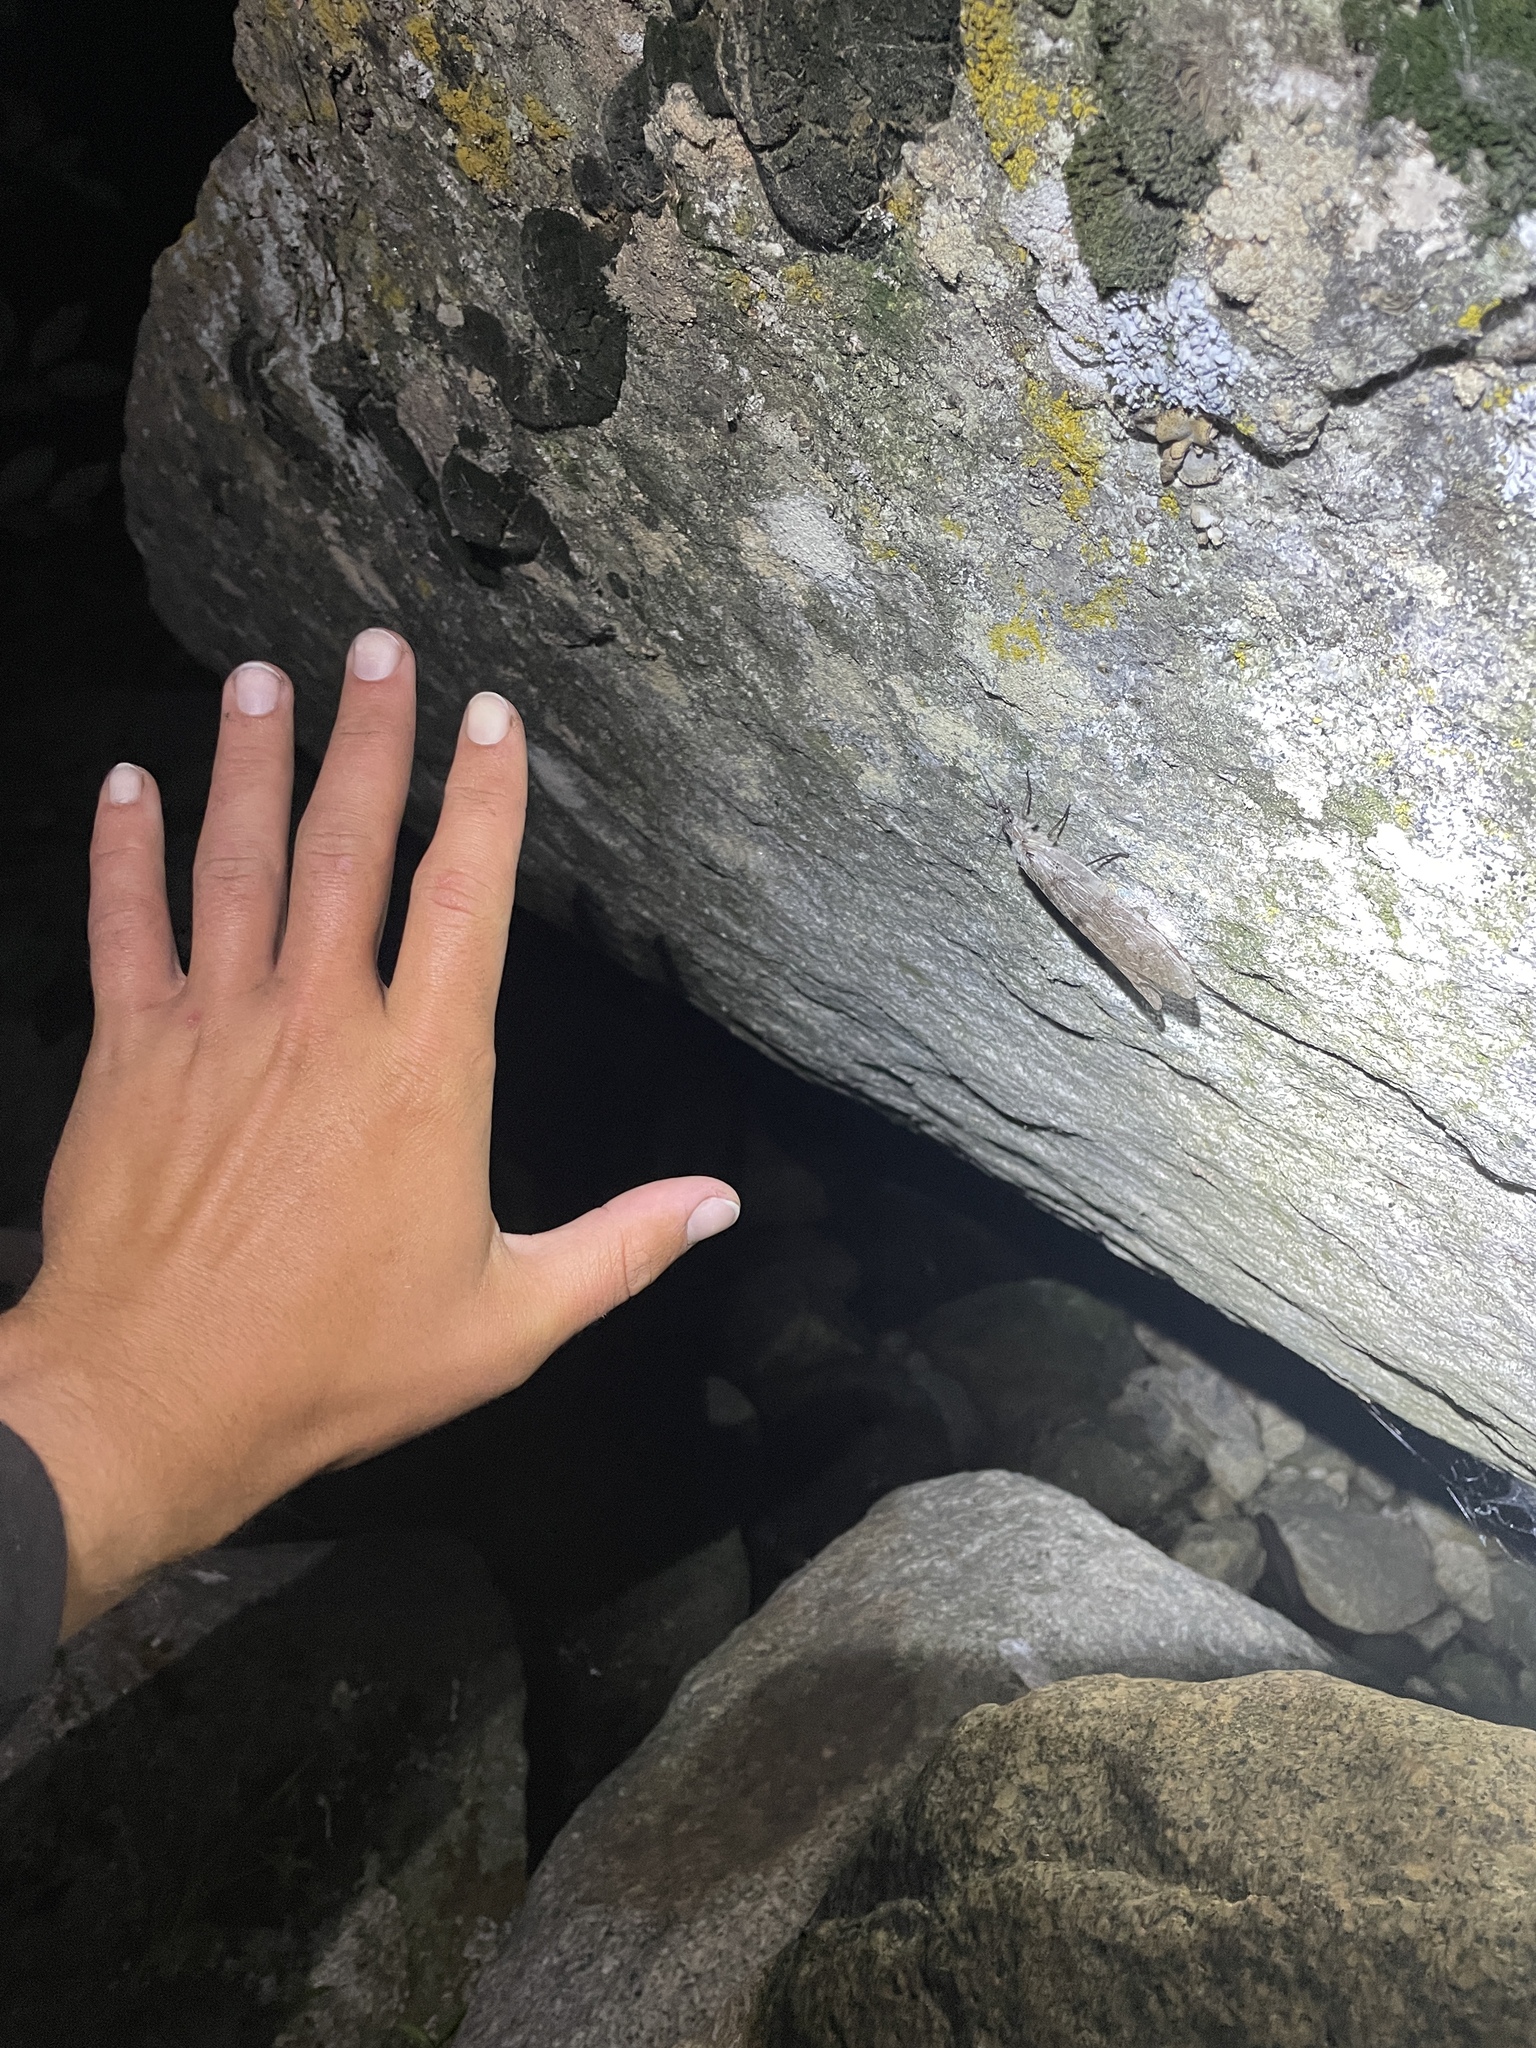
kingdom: Animalia
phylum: Arthropoda
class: Insecta
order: Megaloptera
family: Corydalidae
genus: Dysmicohermes
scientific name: Dysmicohermes ingens
